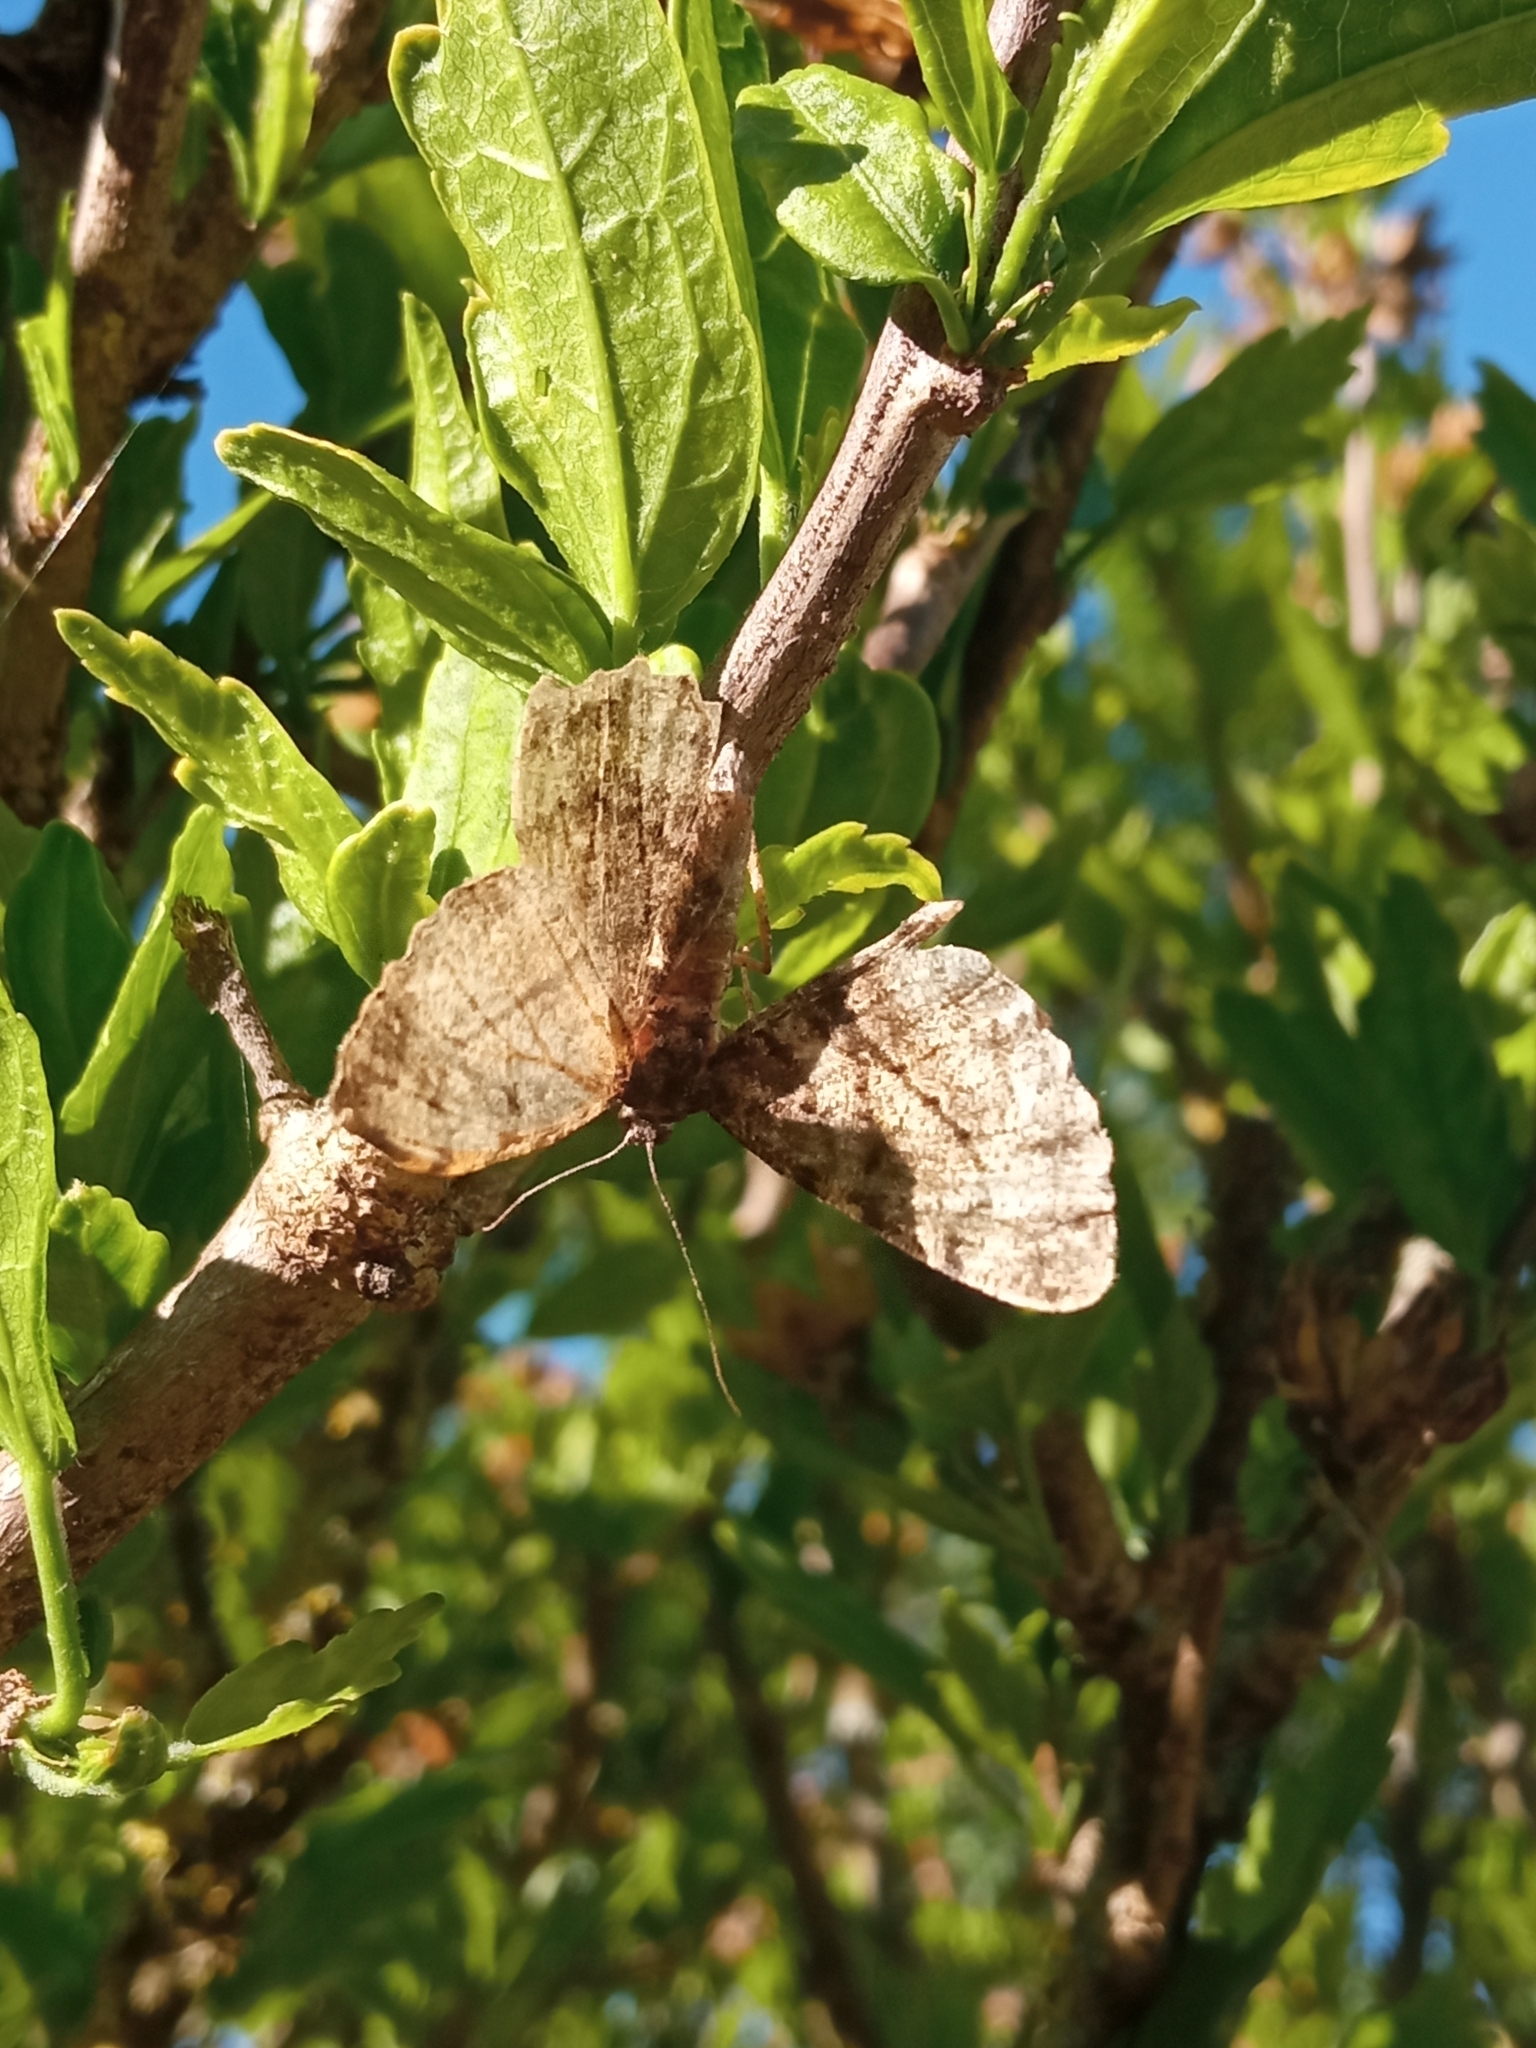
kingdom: Animalia
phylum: Arthropoda
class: Insecta
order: Lepidoptera
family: Geometridae
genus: Peribatodes
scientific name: Peribatodes rhomboidaria
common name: Willow beauty
